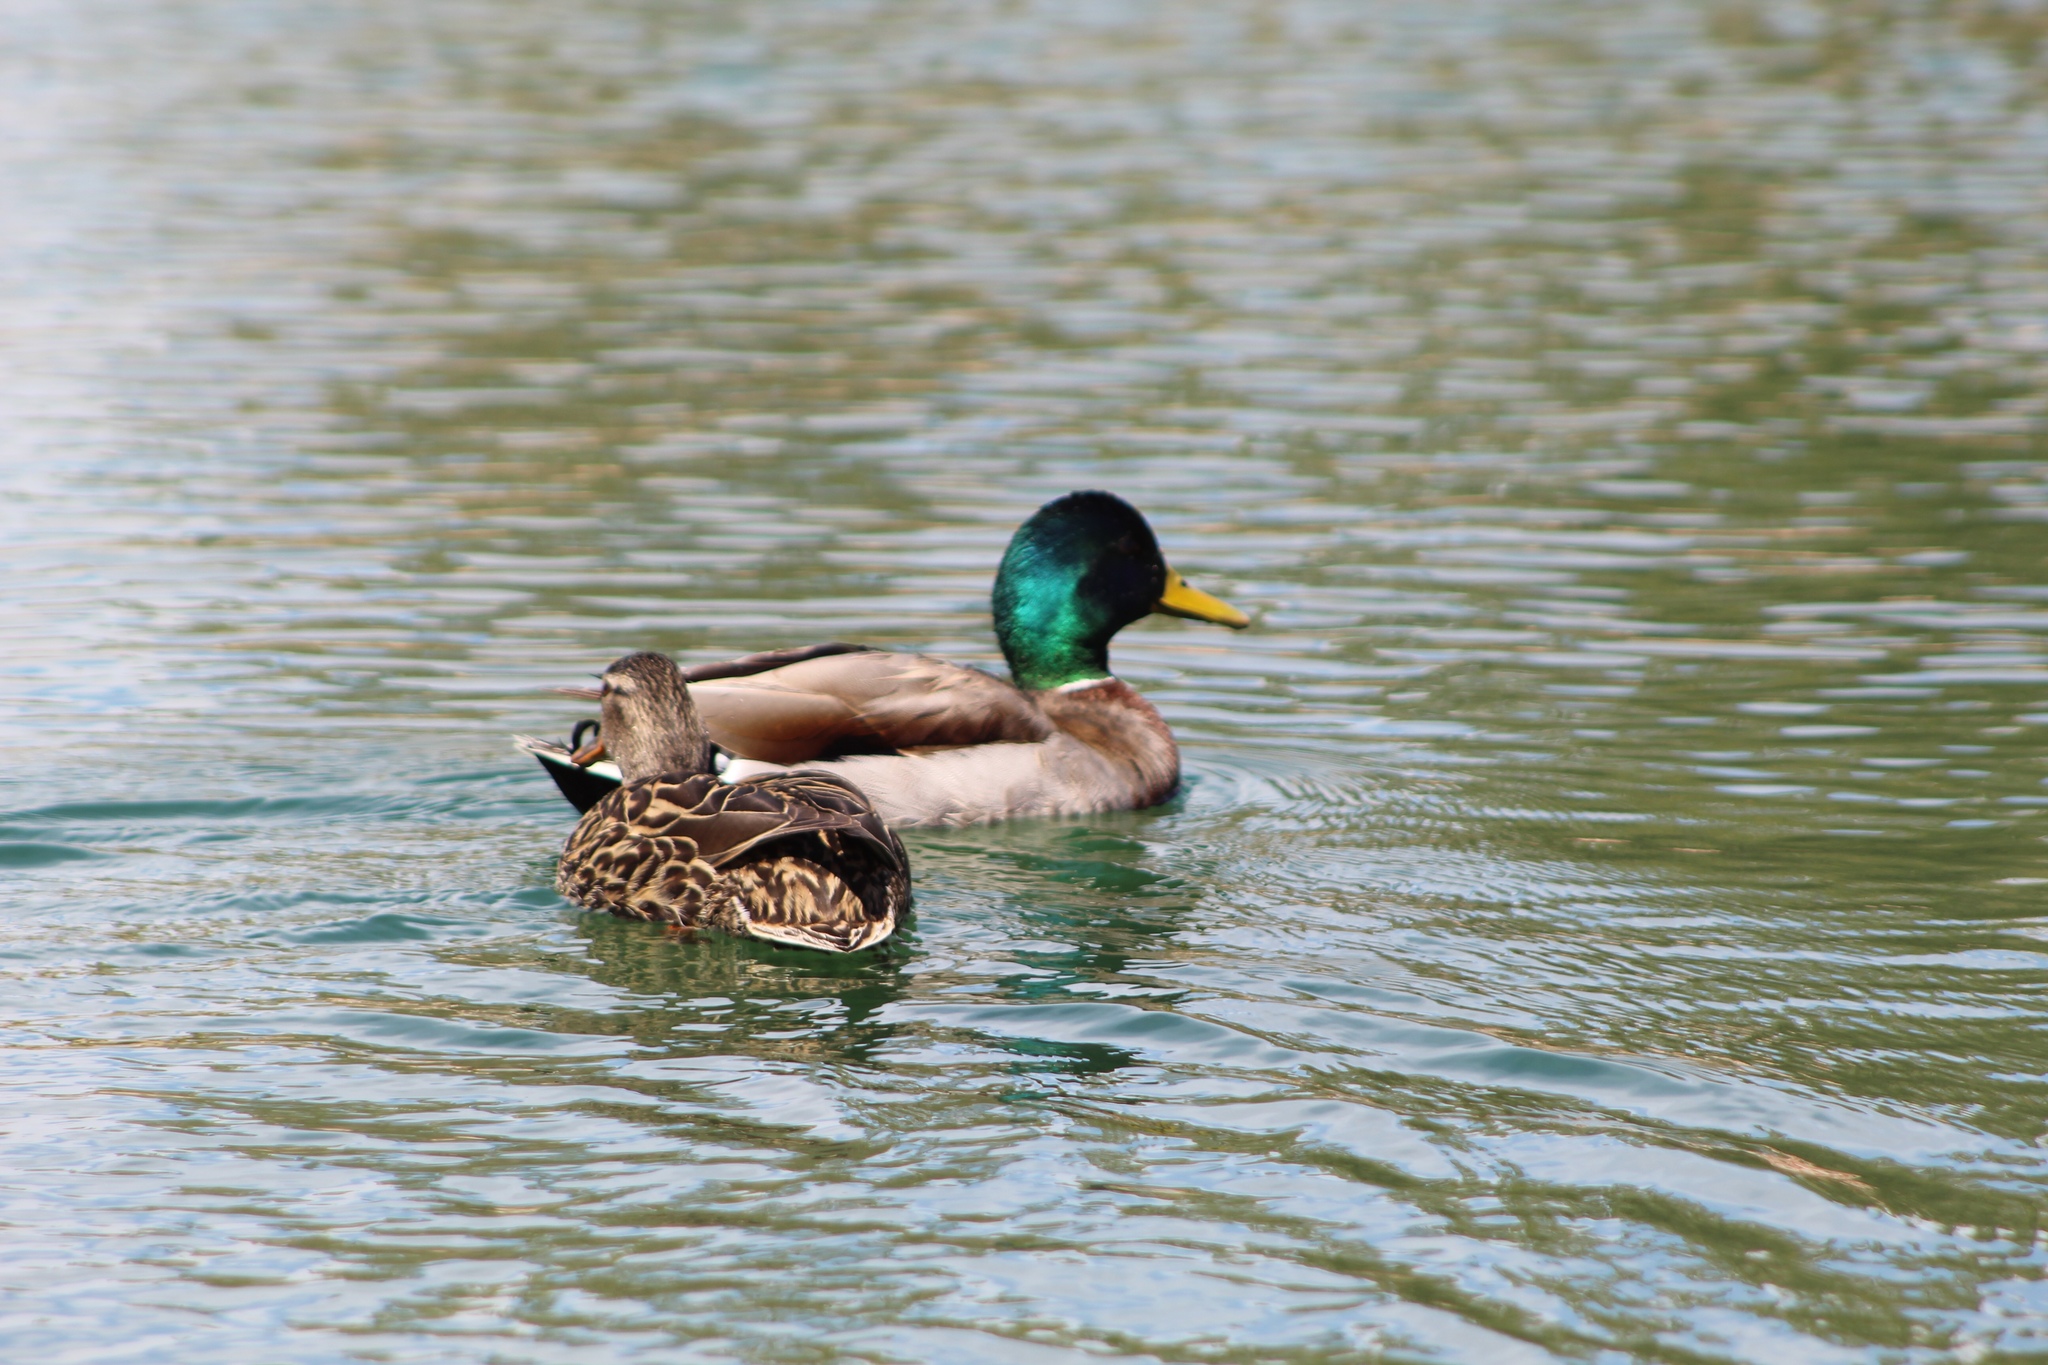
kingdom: Animalia
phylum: Chordata
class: Aves
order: Anseriformes
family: Anatidae
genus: Anas
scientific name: Anas platyrhynchos
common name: Mallard
